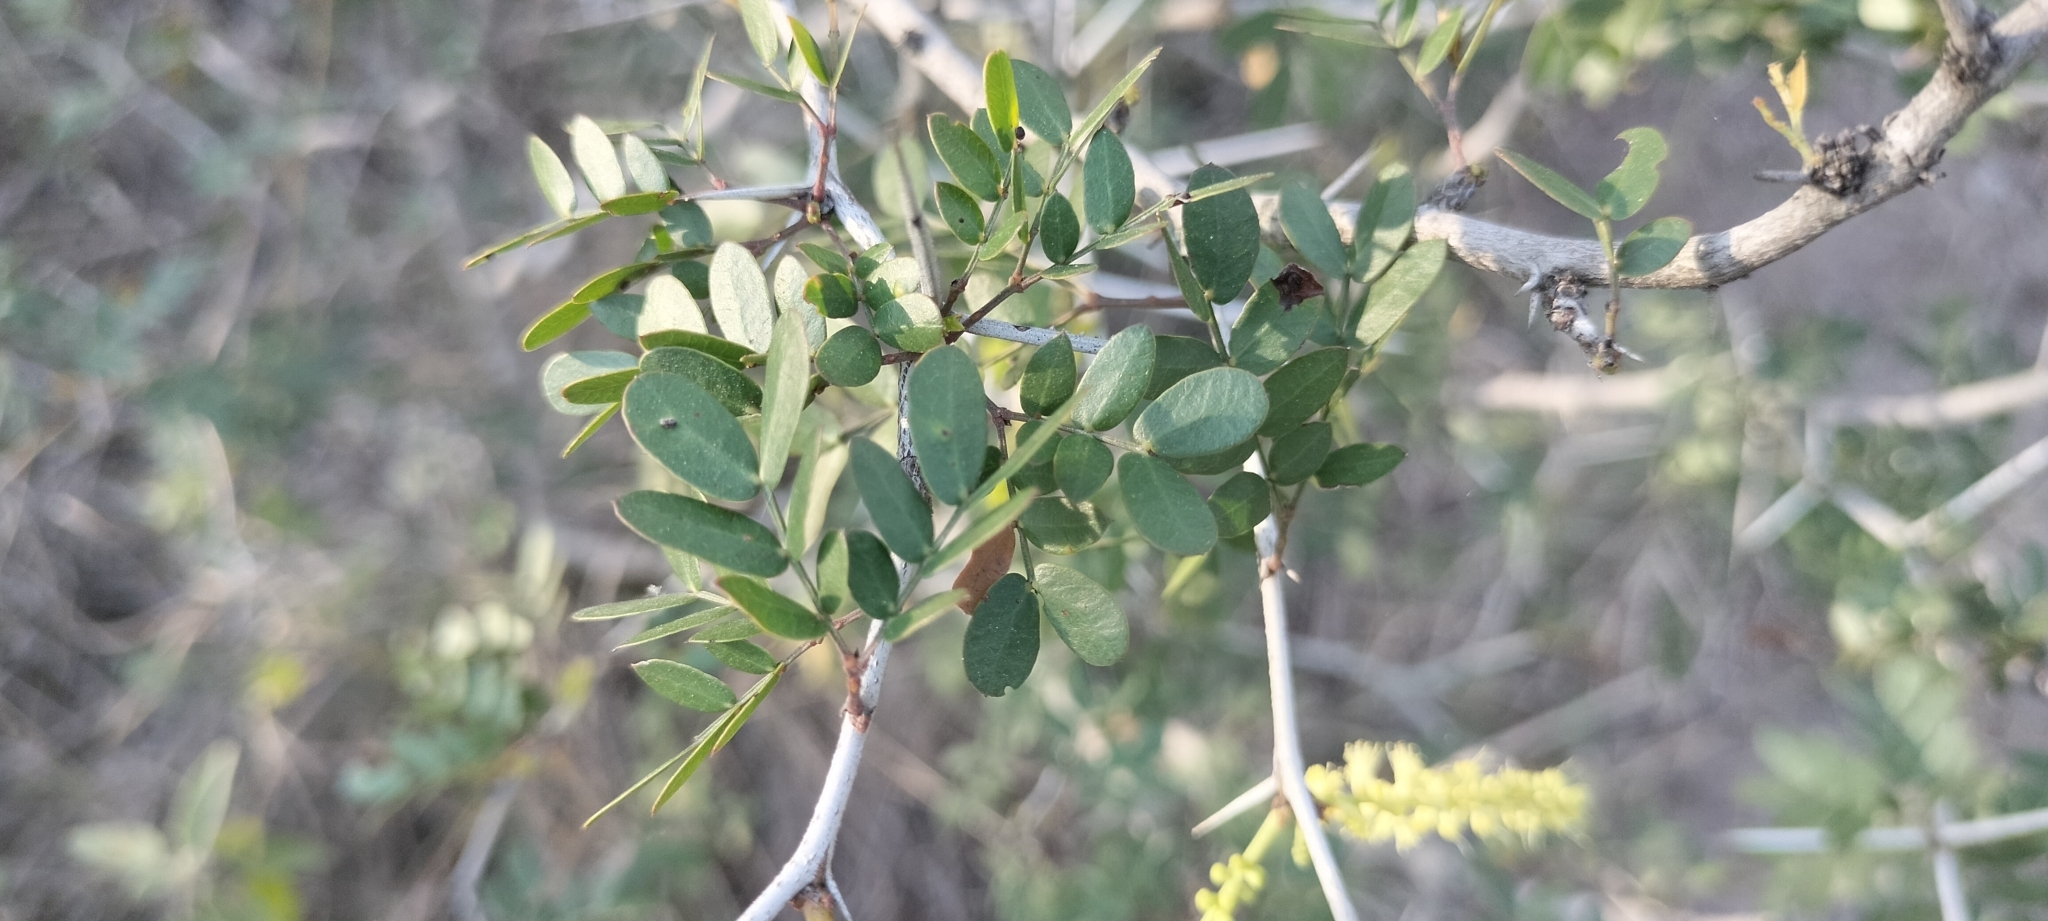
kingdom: Plantae
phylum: Tracheophyta
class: Magnoliopsida
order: Fabales
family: Fabaceae
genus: Vachellia
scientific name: Vachellia rigidula
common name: Blackbrush
